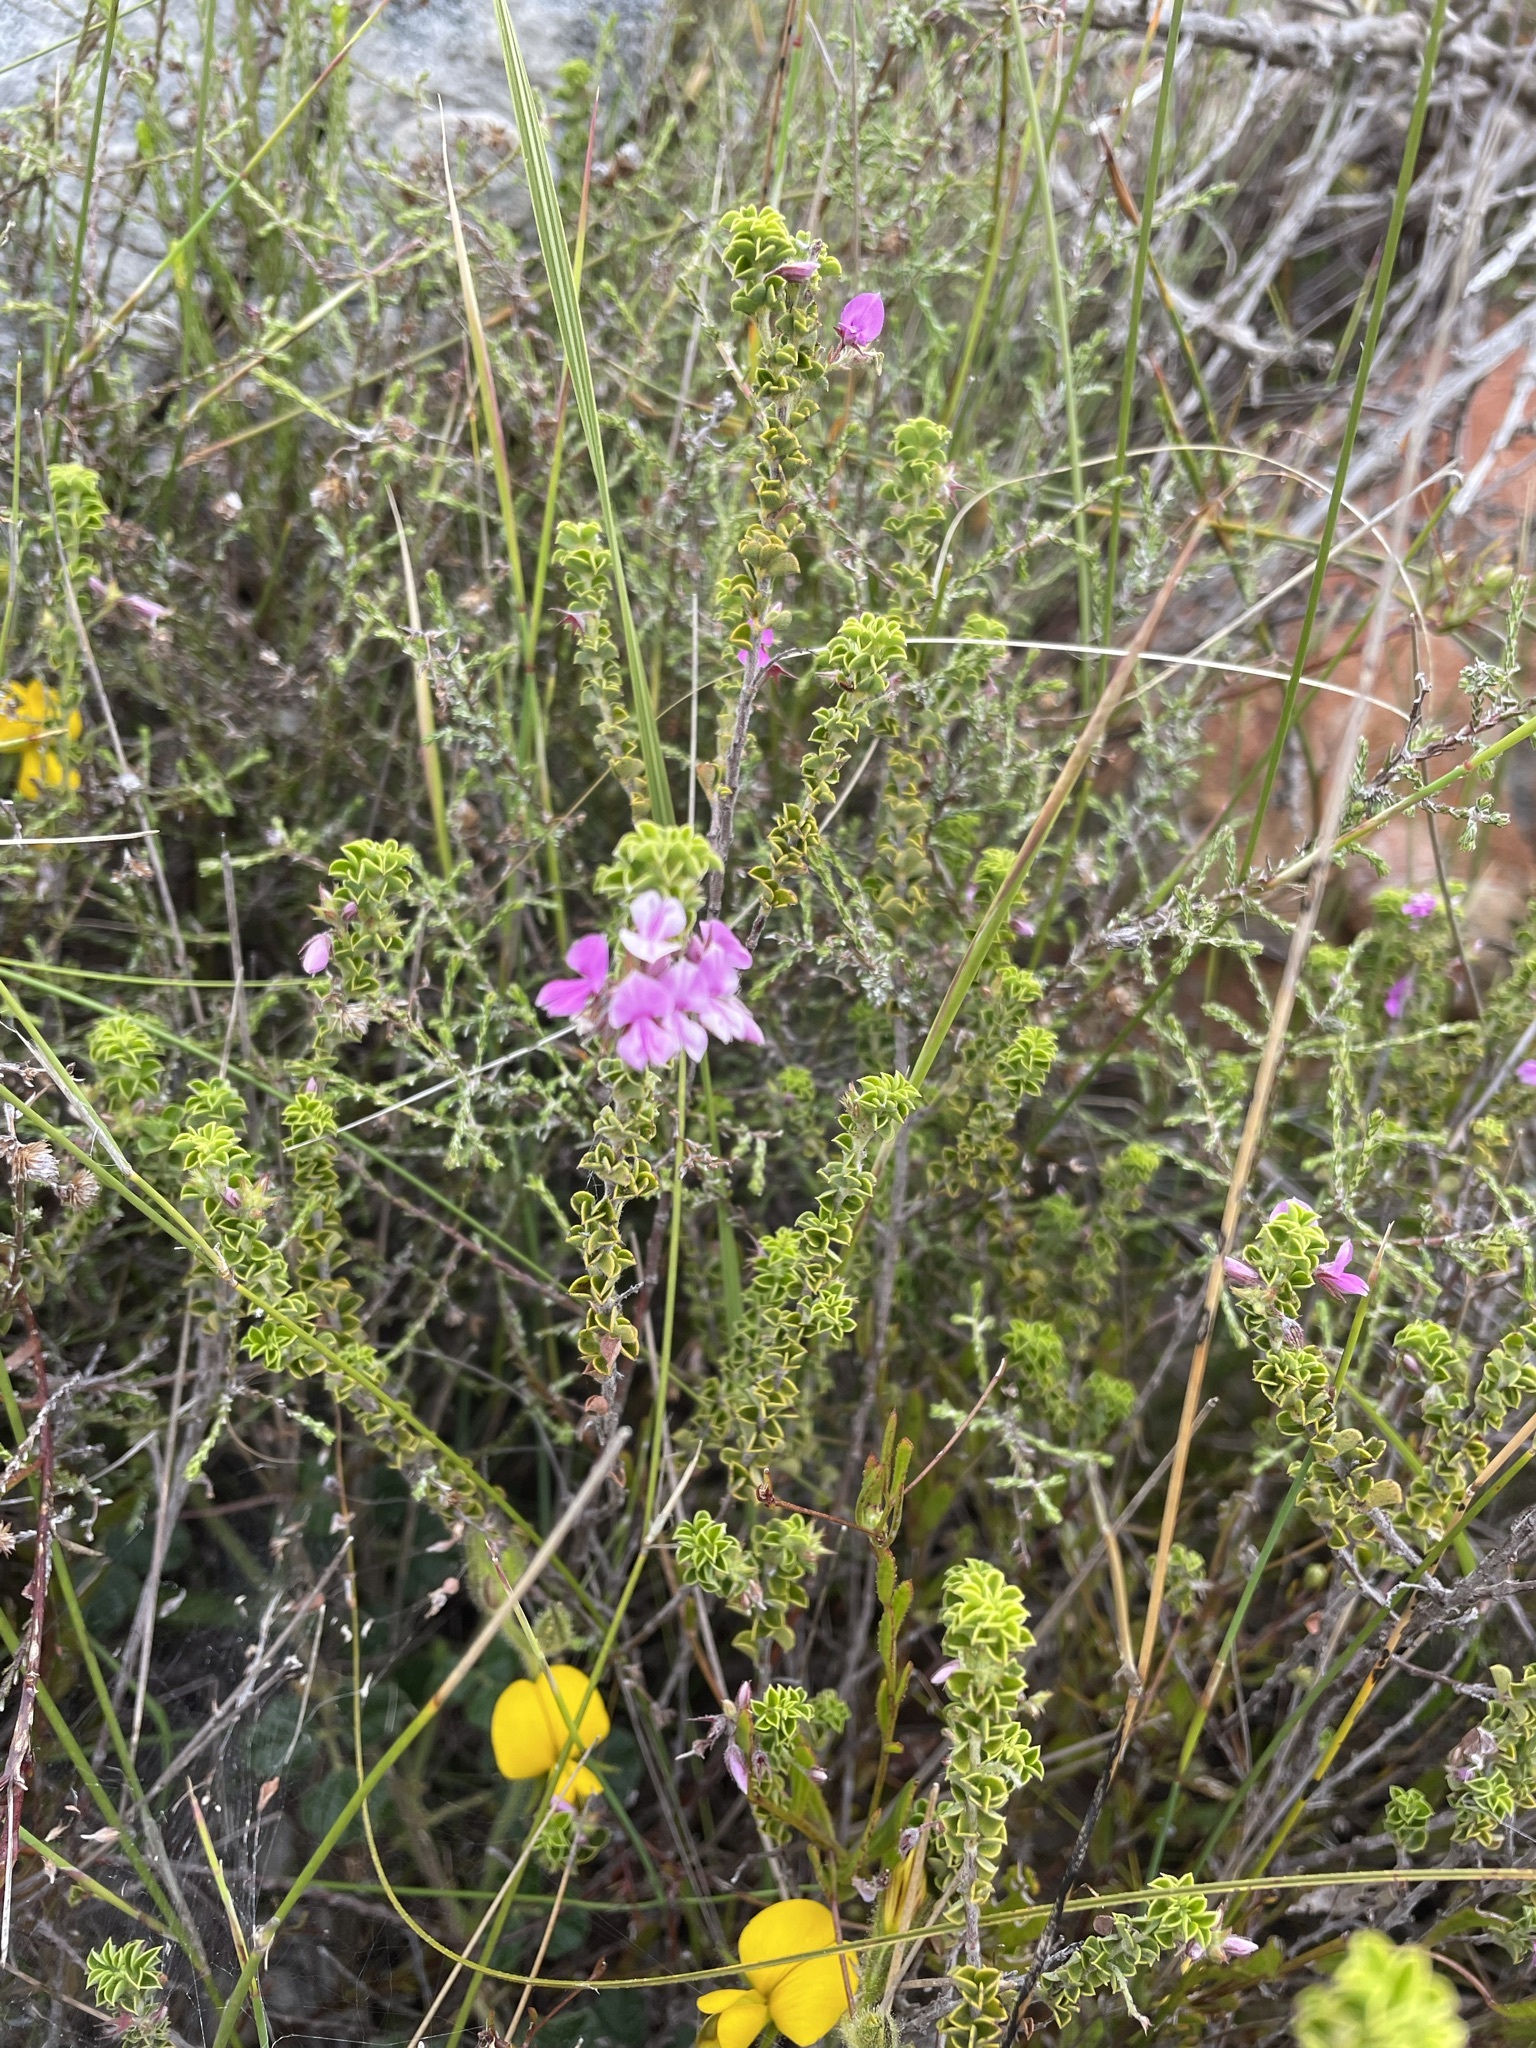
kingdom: Plantae
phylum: Tracheophyta
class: Magnoliopsida
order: Fabales
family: Fabaceae
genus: Indigofera
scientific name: Indigofera candolleana
